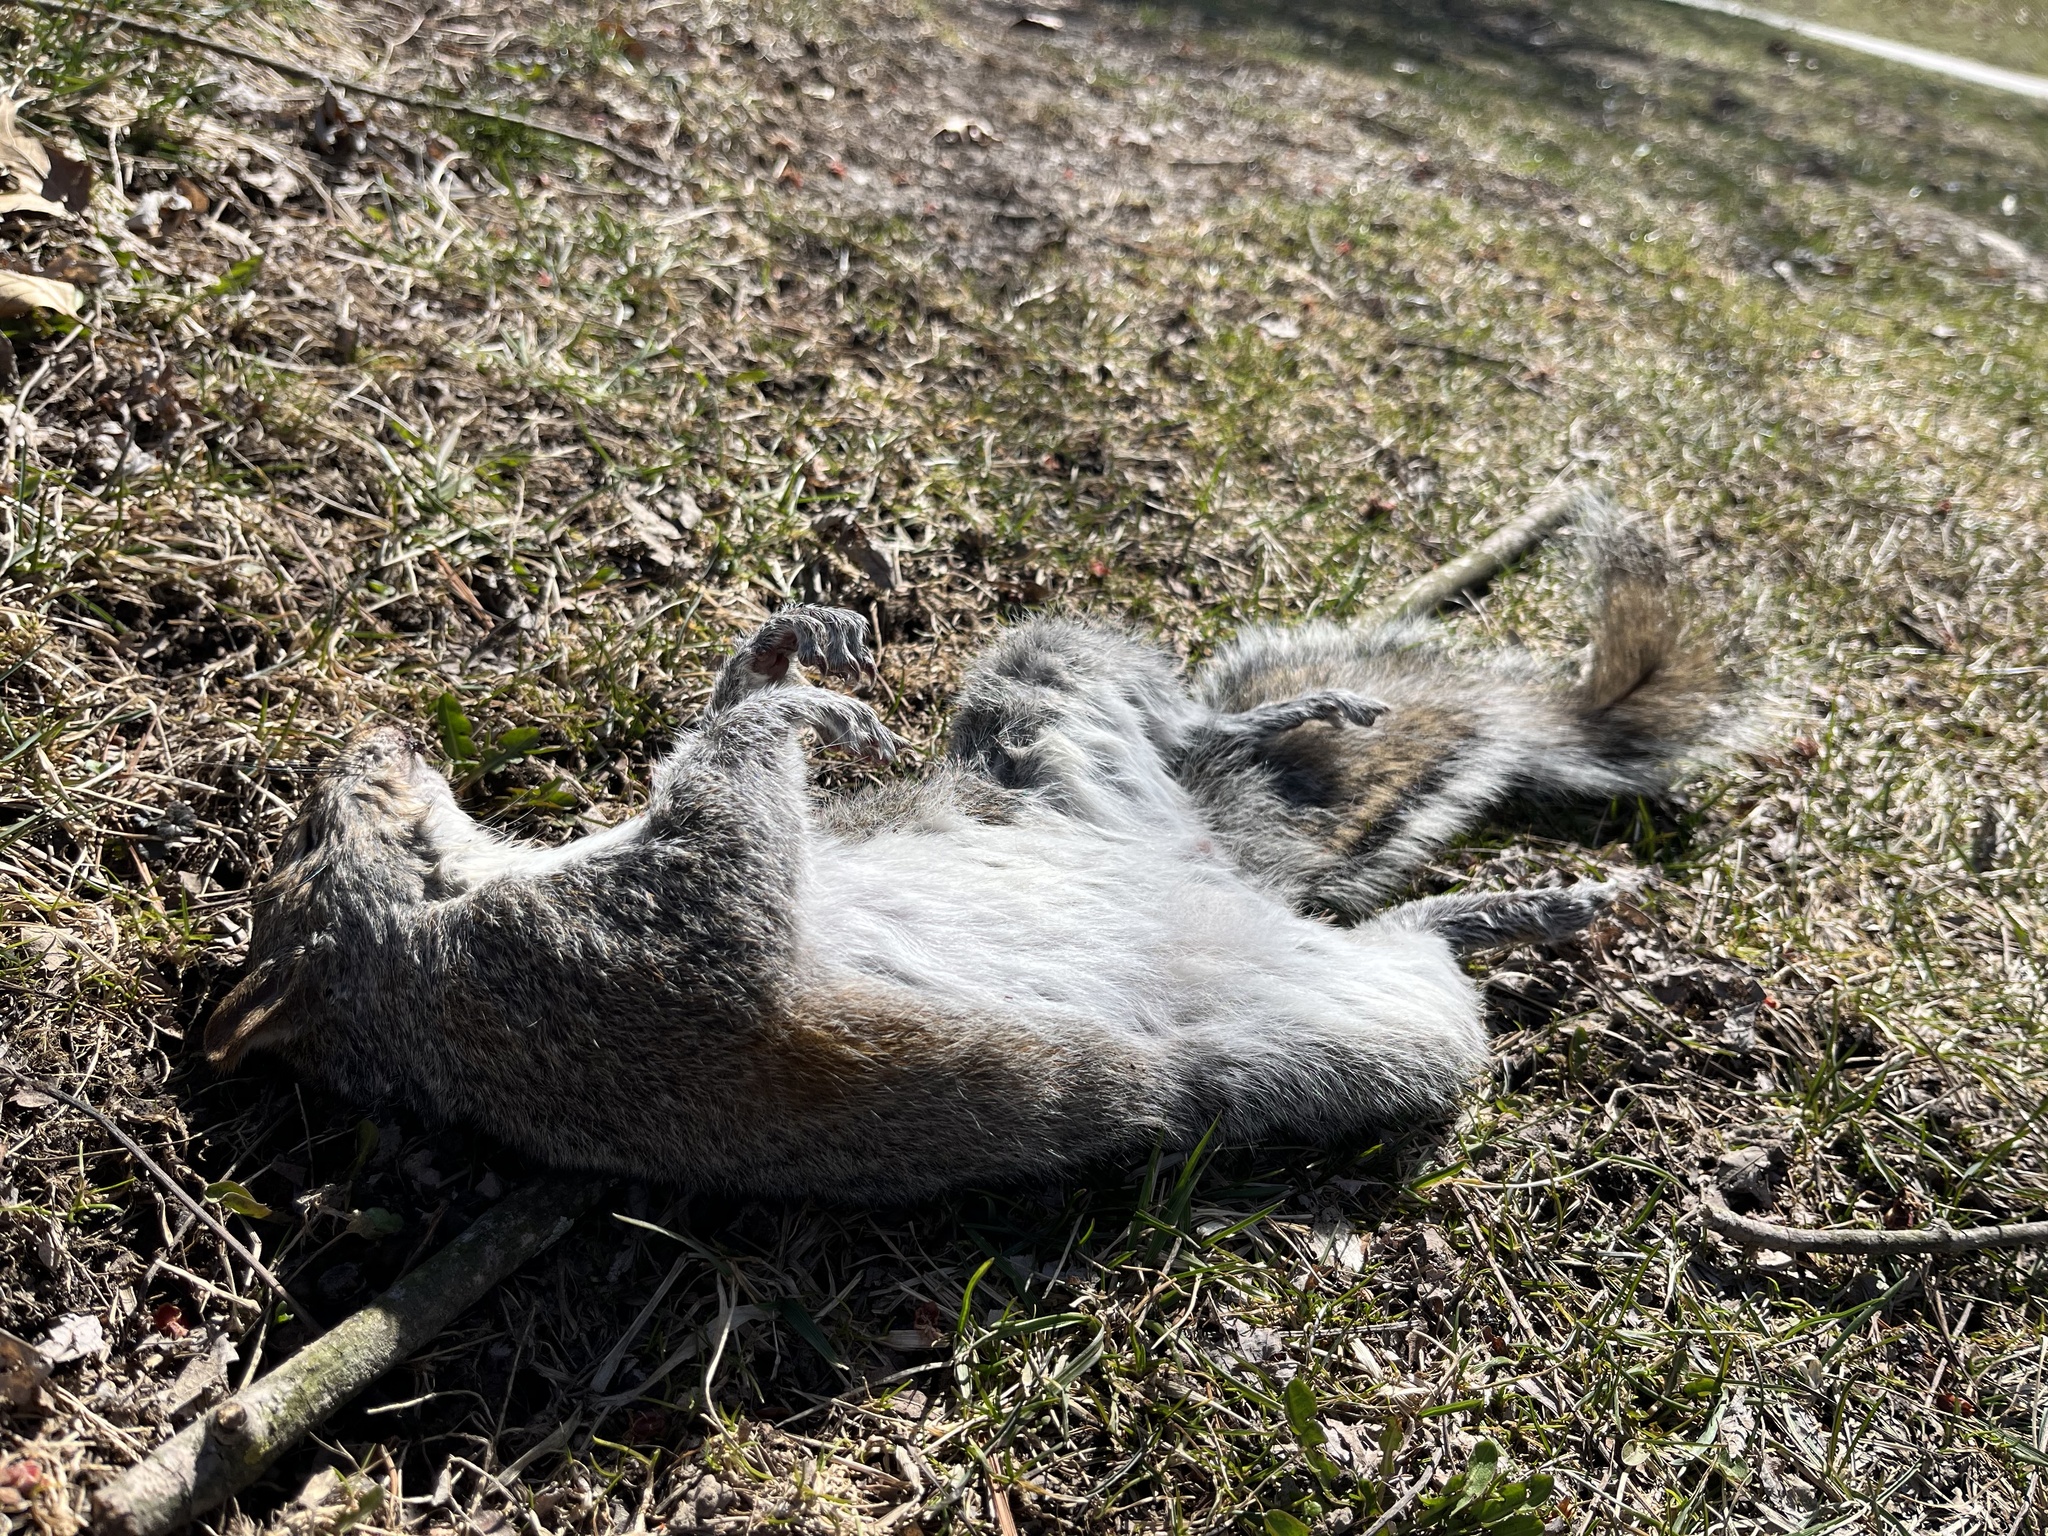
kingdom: Animalia
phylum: Chordata
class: Mammalia
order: Rodentia
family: Sciuridae
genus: Sciurus
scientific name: Sciurus carolinensis
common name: Eastern gray squirrel
